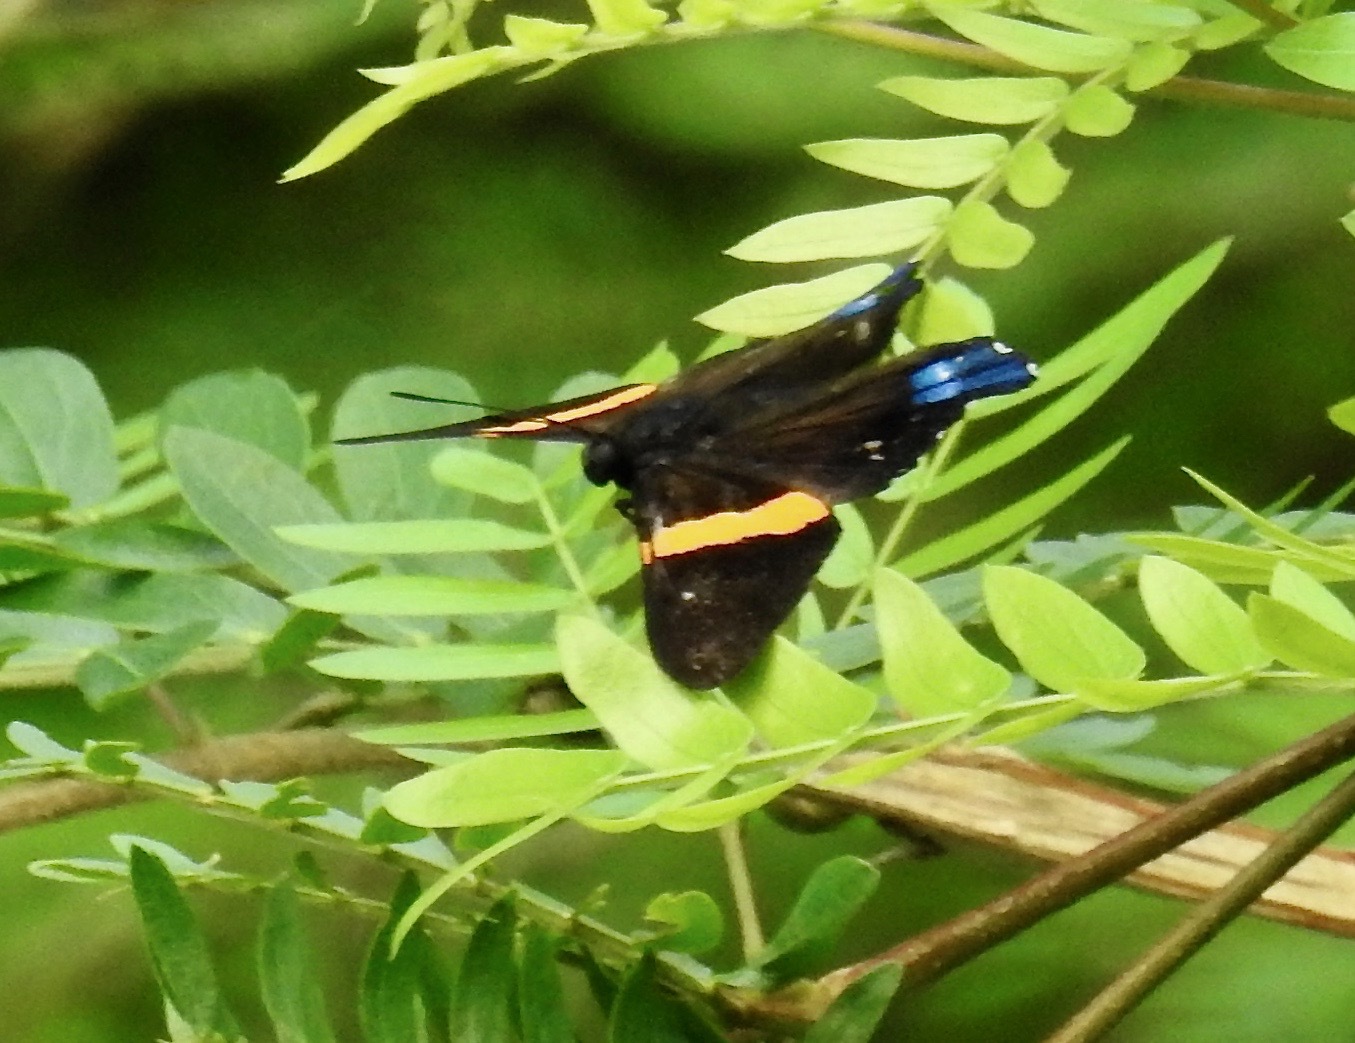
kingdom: Animalia
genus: Ancyluris
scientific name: Ancyluris inca
